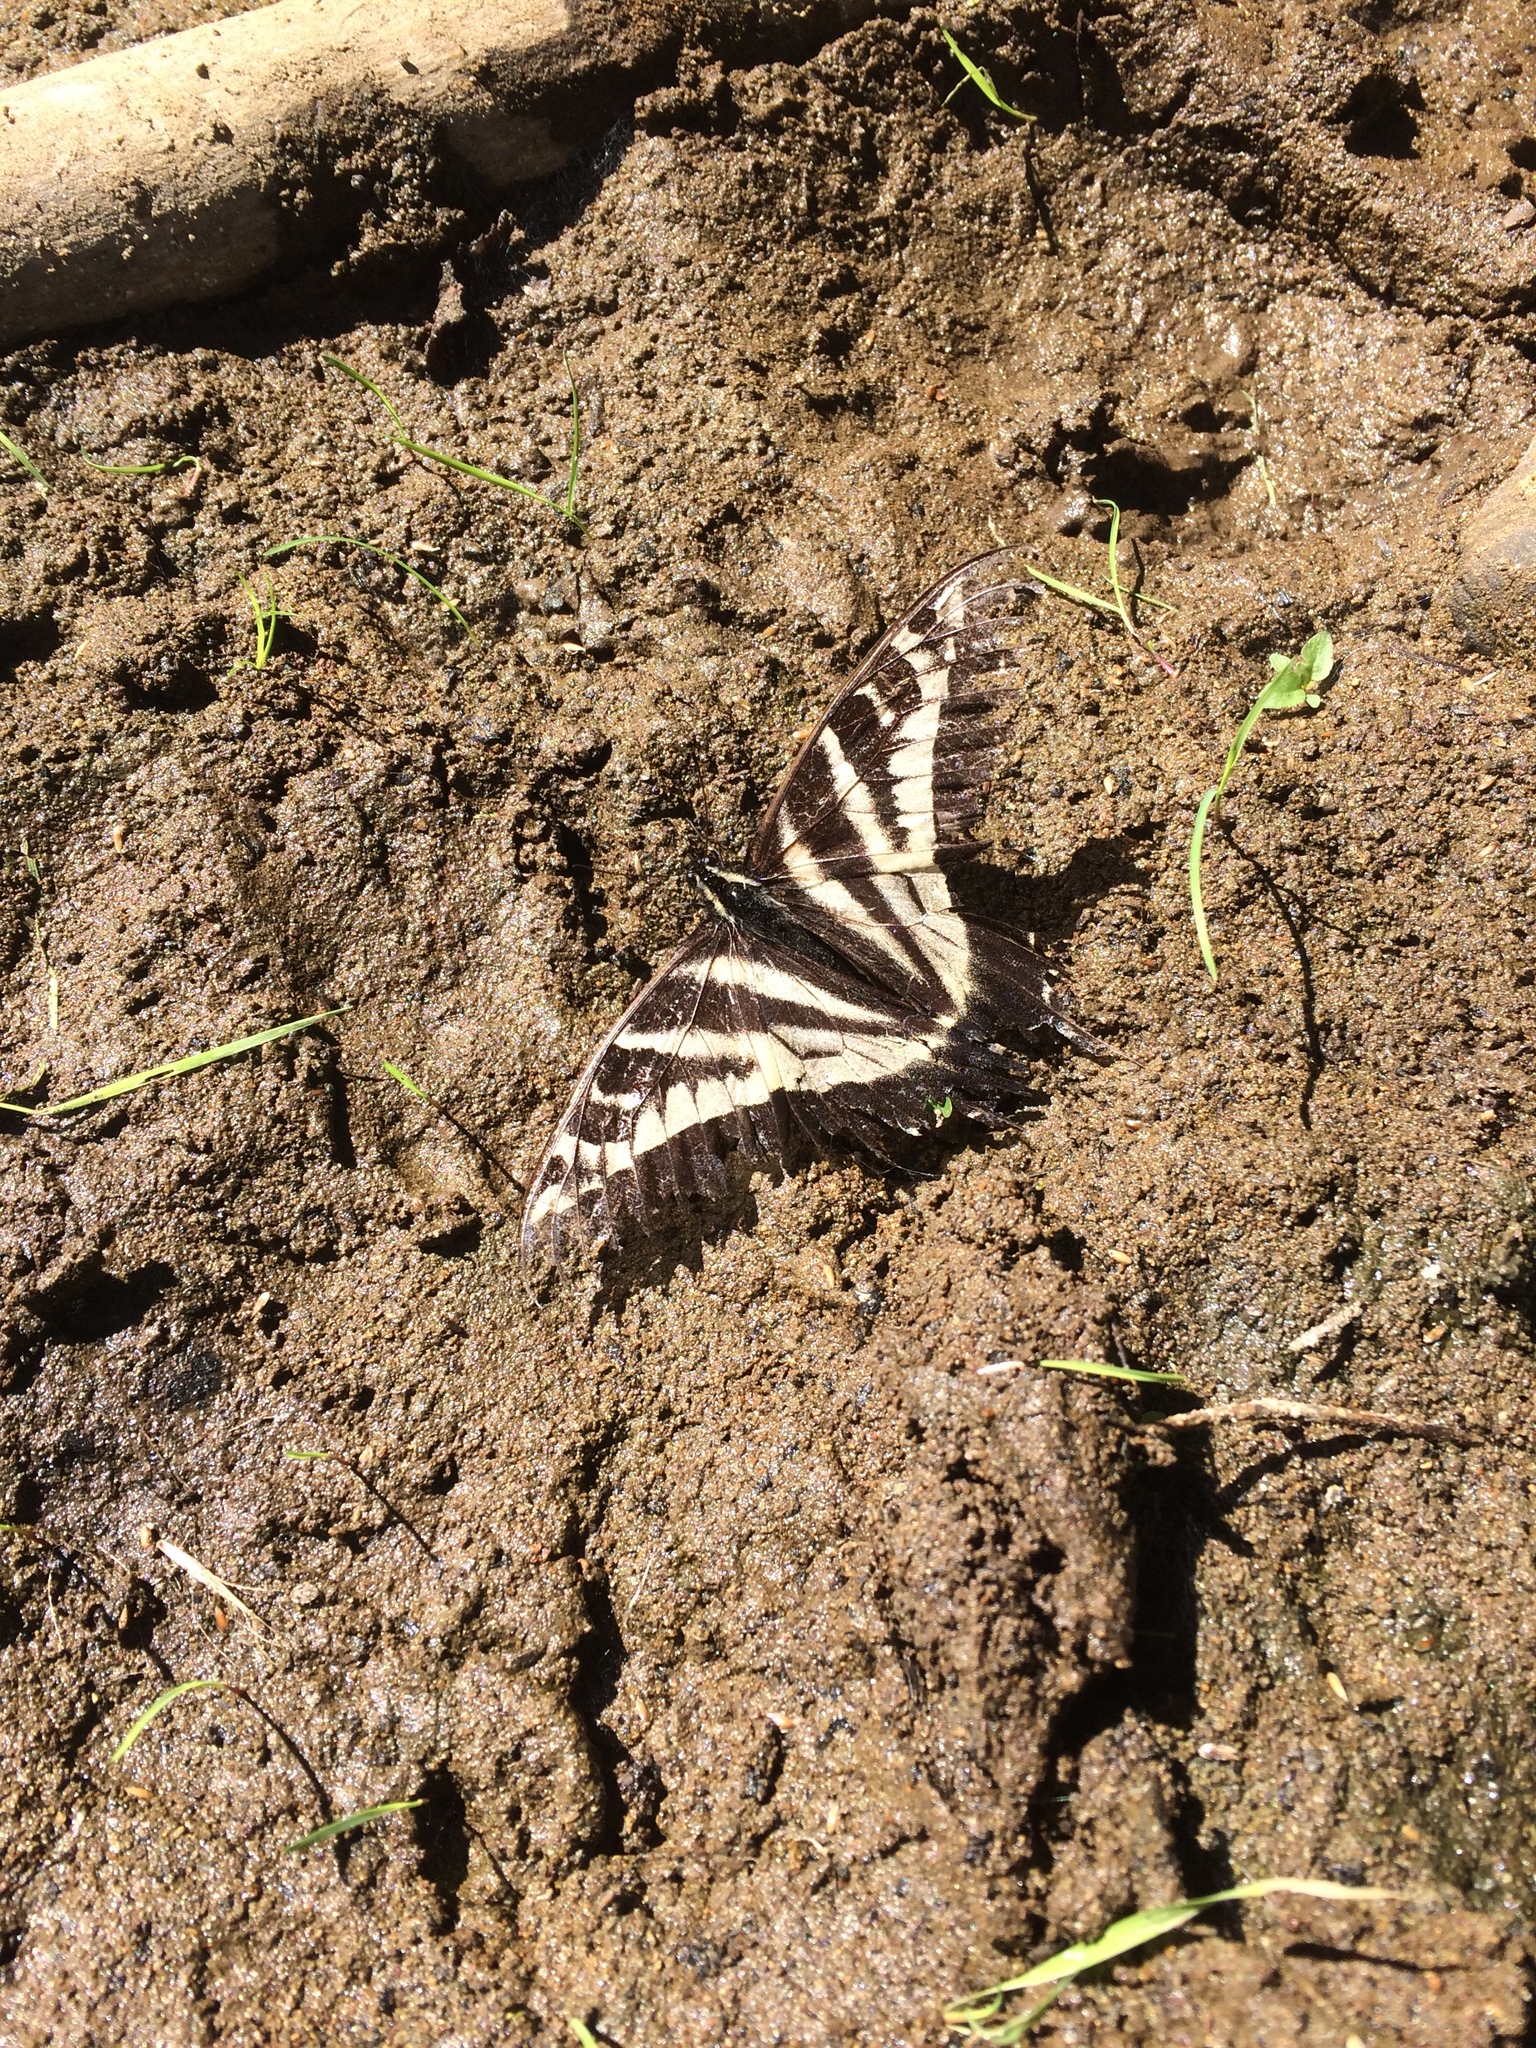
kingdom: Animalia
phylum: Arthropoda
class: Insecta
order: Lepidoptera
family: Papilionidae
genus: Papilio
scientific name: Papilio eurymedon
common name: Pale tiger swallowtail
